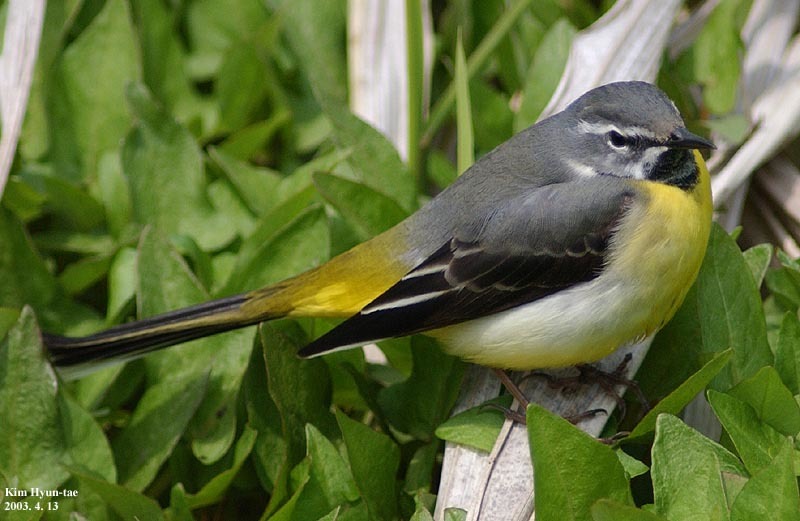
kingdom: Animalia
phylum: Chordata
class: Aves
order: Passeriformes
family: Motacillidae
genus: Motacilla
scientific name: Motacilla cinerea
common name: Grey wagtail
